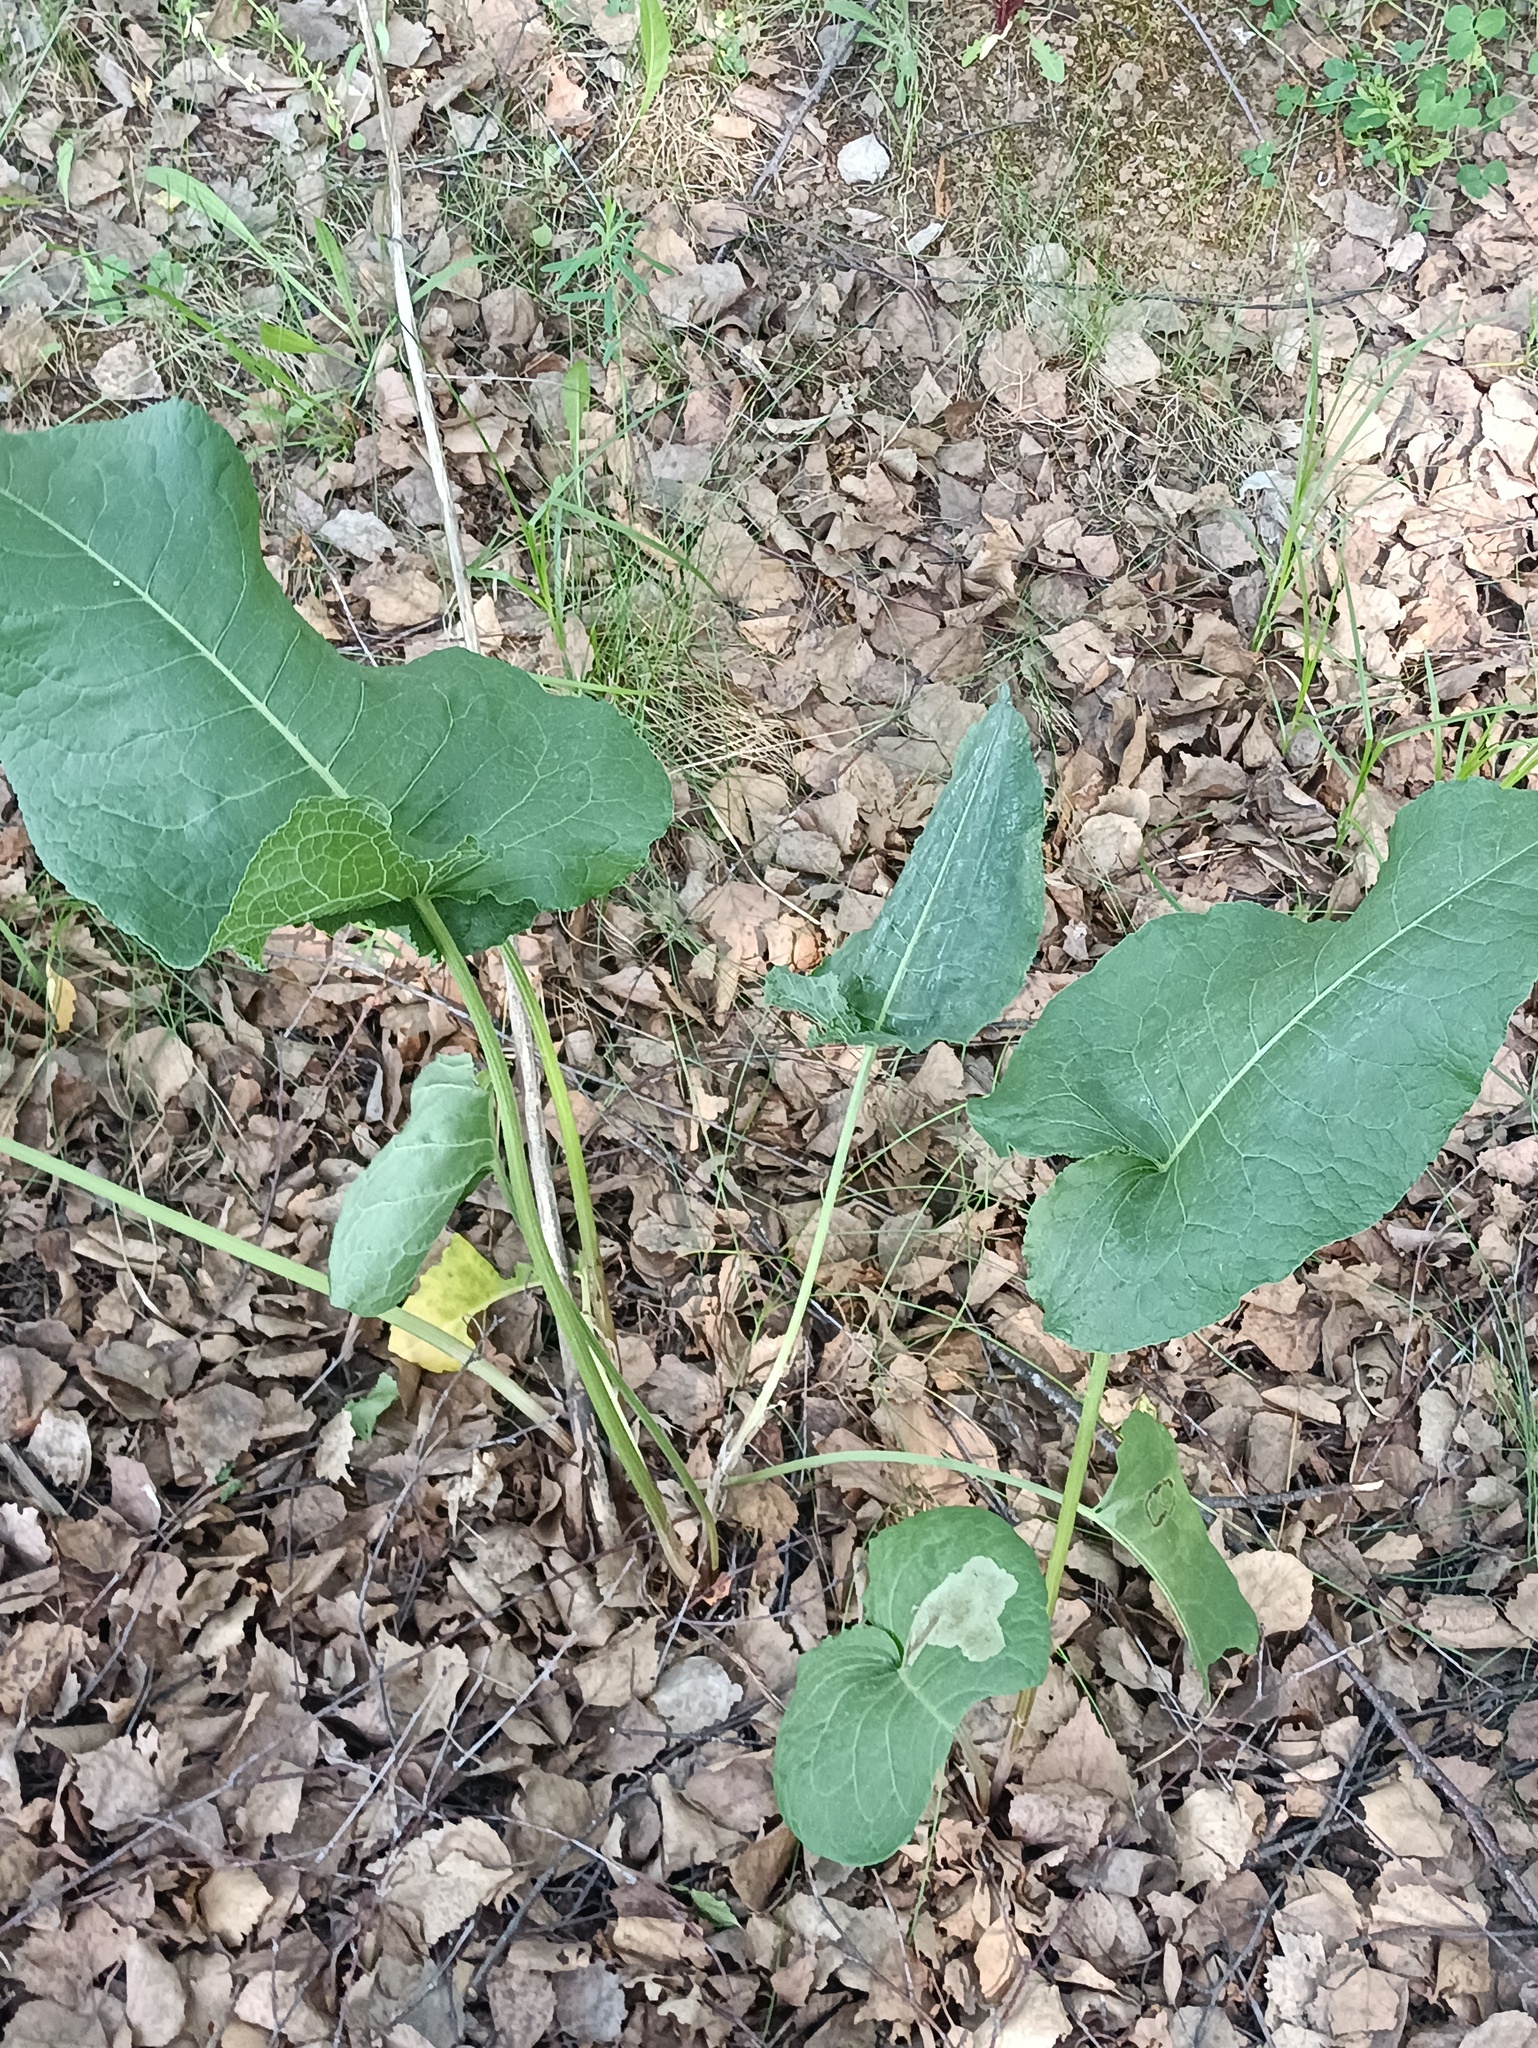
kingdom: Plantae
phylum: Tracheophyta
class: Magnoliopsida
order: Caryophyllales
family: Polygonaceae
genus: Rumex
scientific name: Rumex confertus
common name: Russian dock
